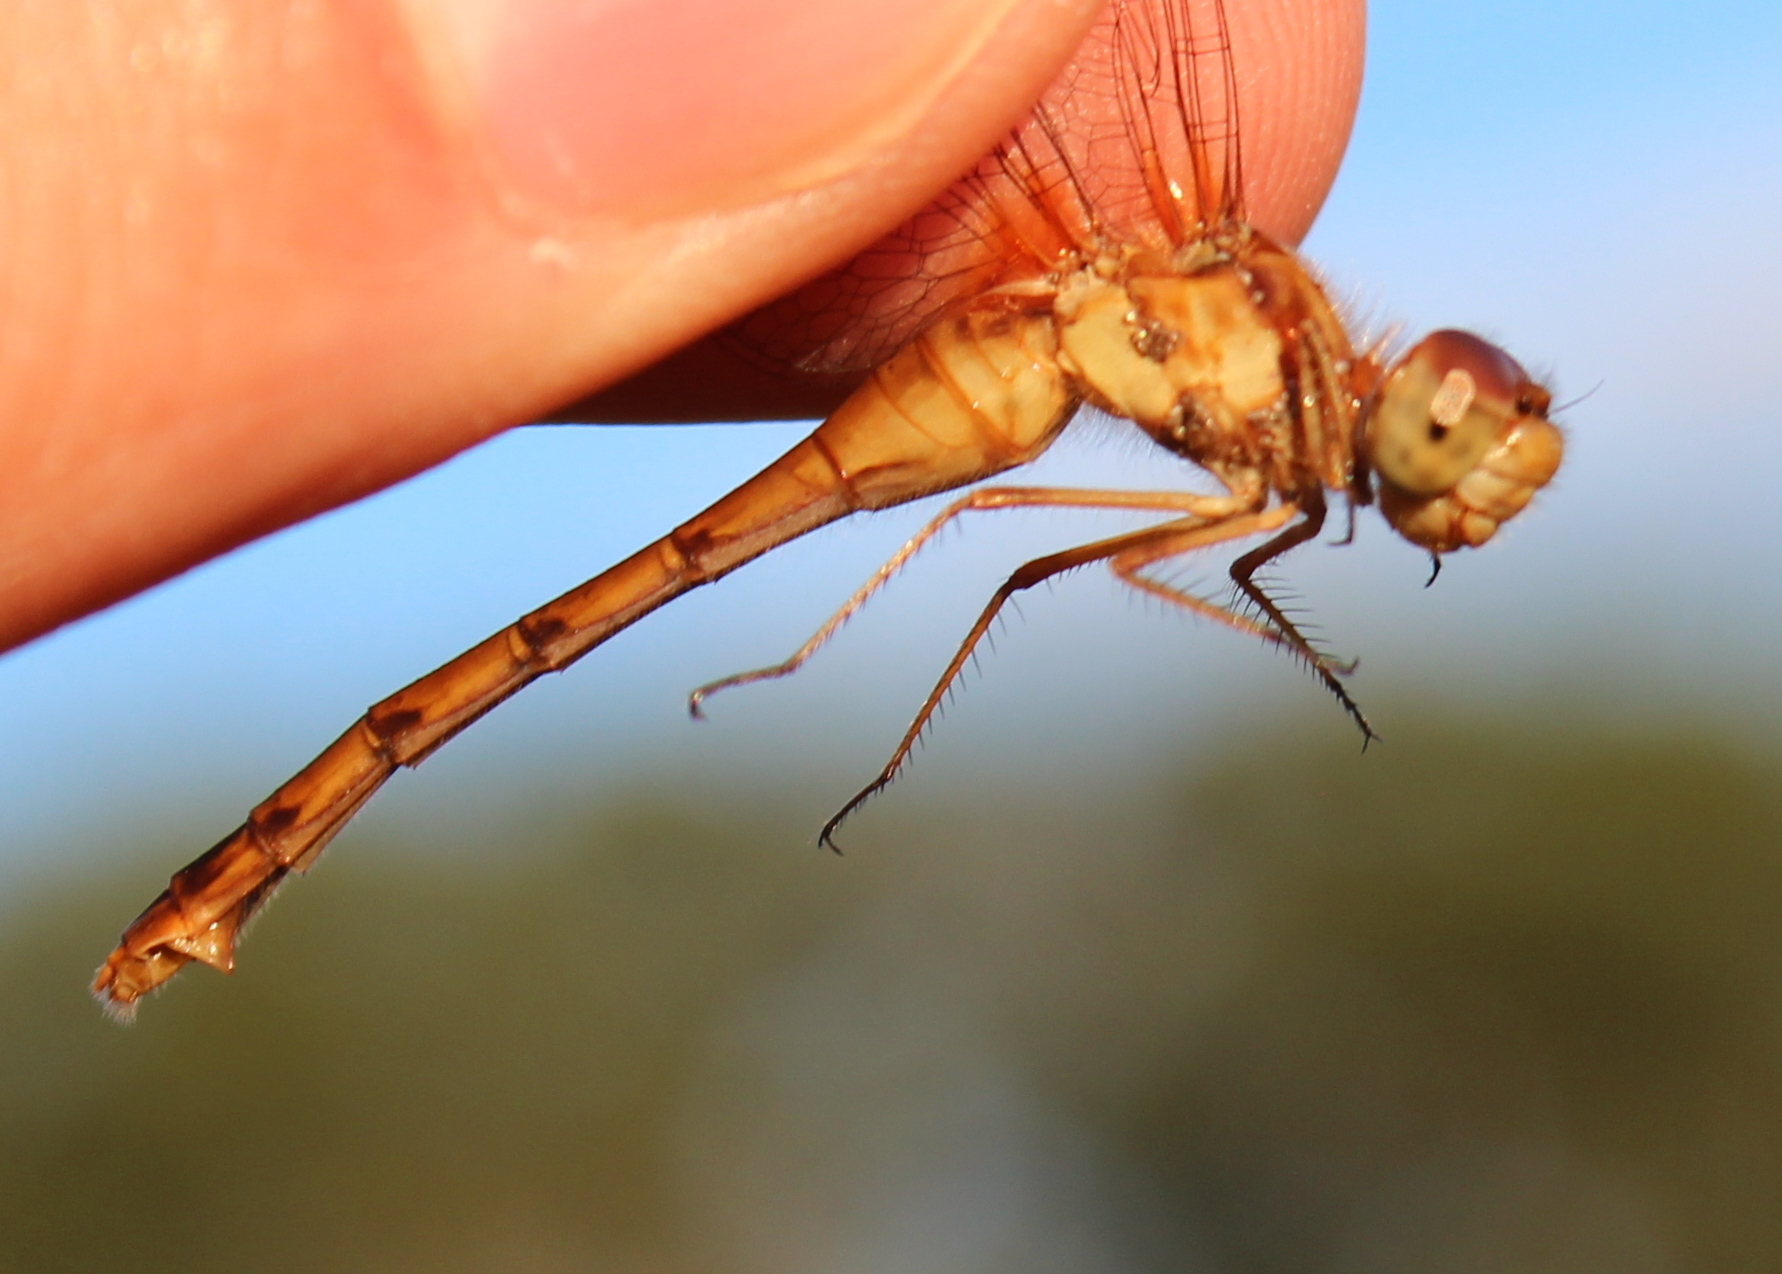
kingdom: Animalia
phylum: Arthropoda
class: Insecta
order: Odonata
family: Libellulidae
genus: Sympetrum
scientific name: Sympetrum vicinum
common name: Autumn meadowhawk
